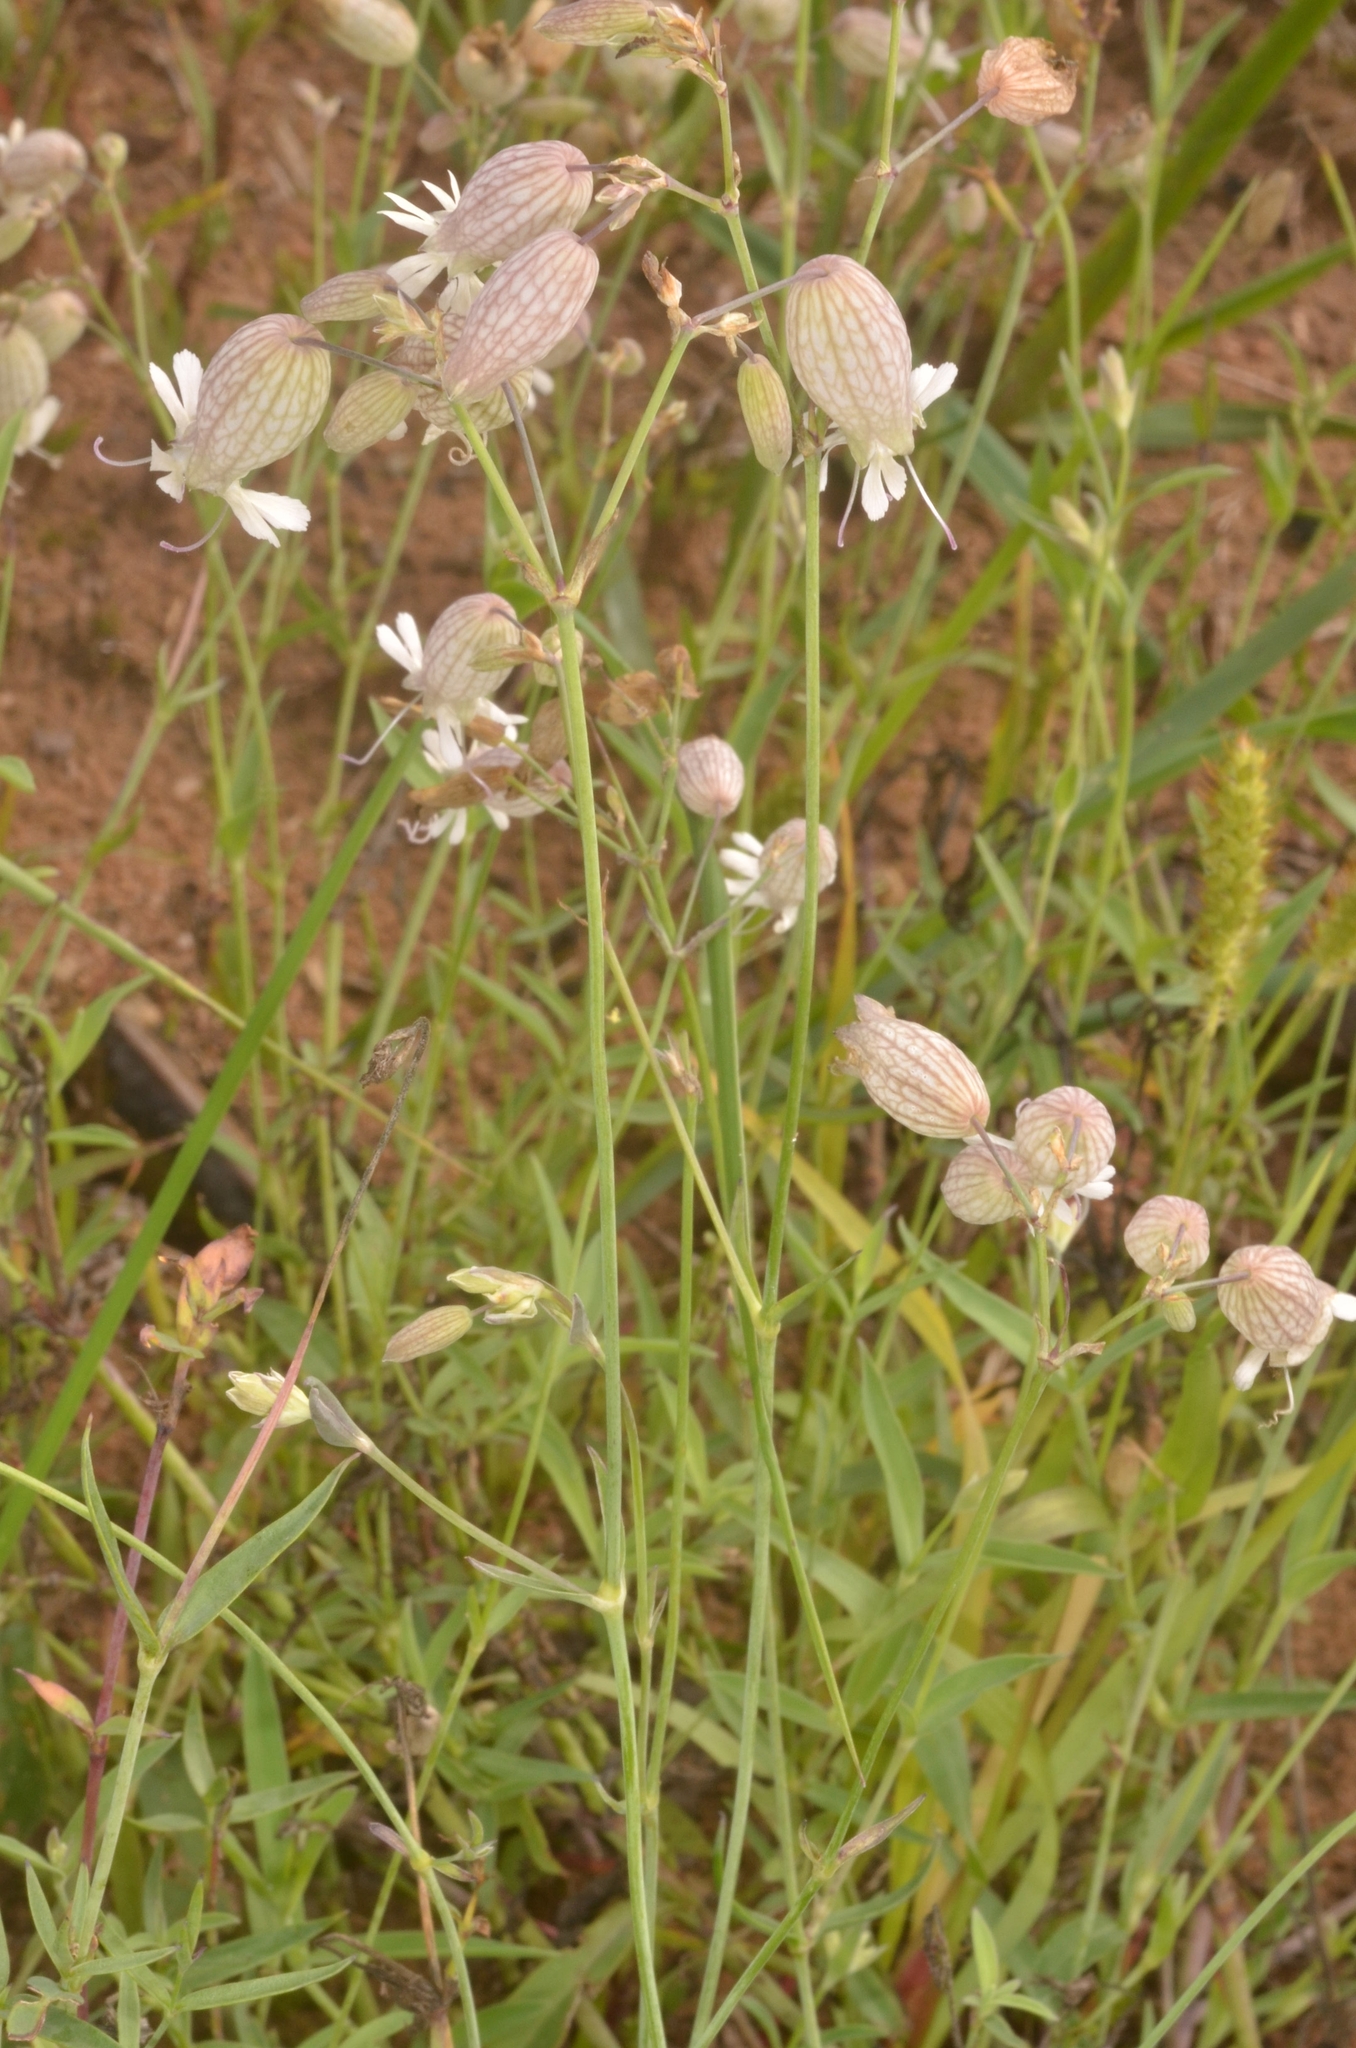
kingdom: Plantae
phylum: Tracheophyta
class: Magnoliopsida
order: Caryophyllales
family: Caryophyllaceae
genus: Silene
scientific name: Silene vulgaris
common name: Bladder campion
